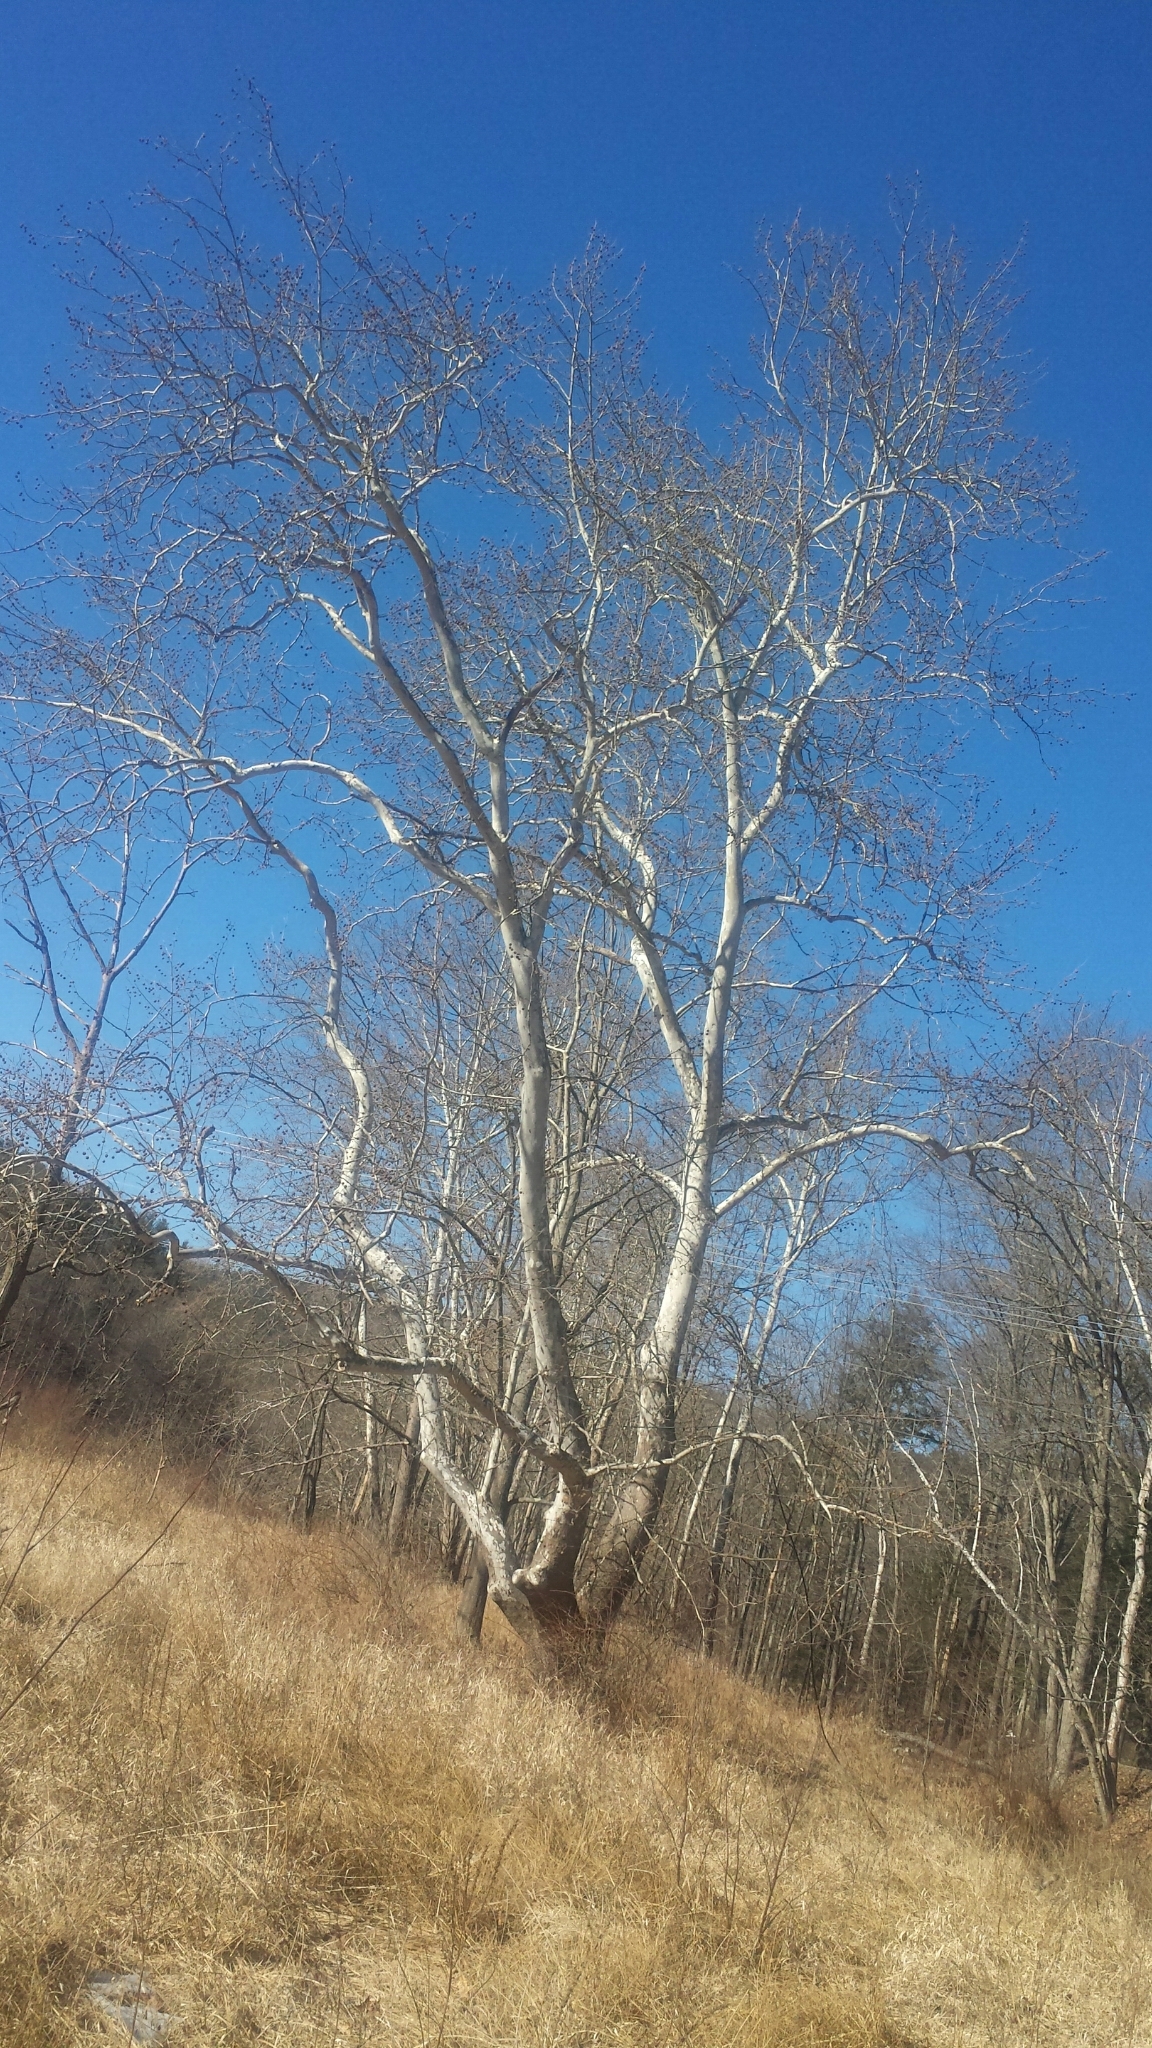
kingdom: Plantae
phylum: Tracheophyta
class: Magnoliopsida
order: Proteales
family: Platanaceae
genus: Platanus
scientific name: Platanus occidentalis
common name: American sycamore
